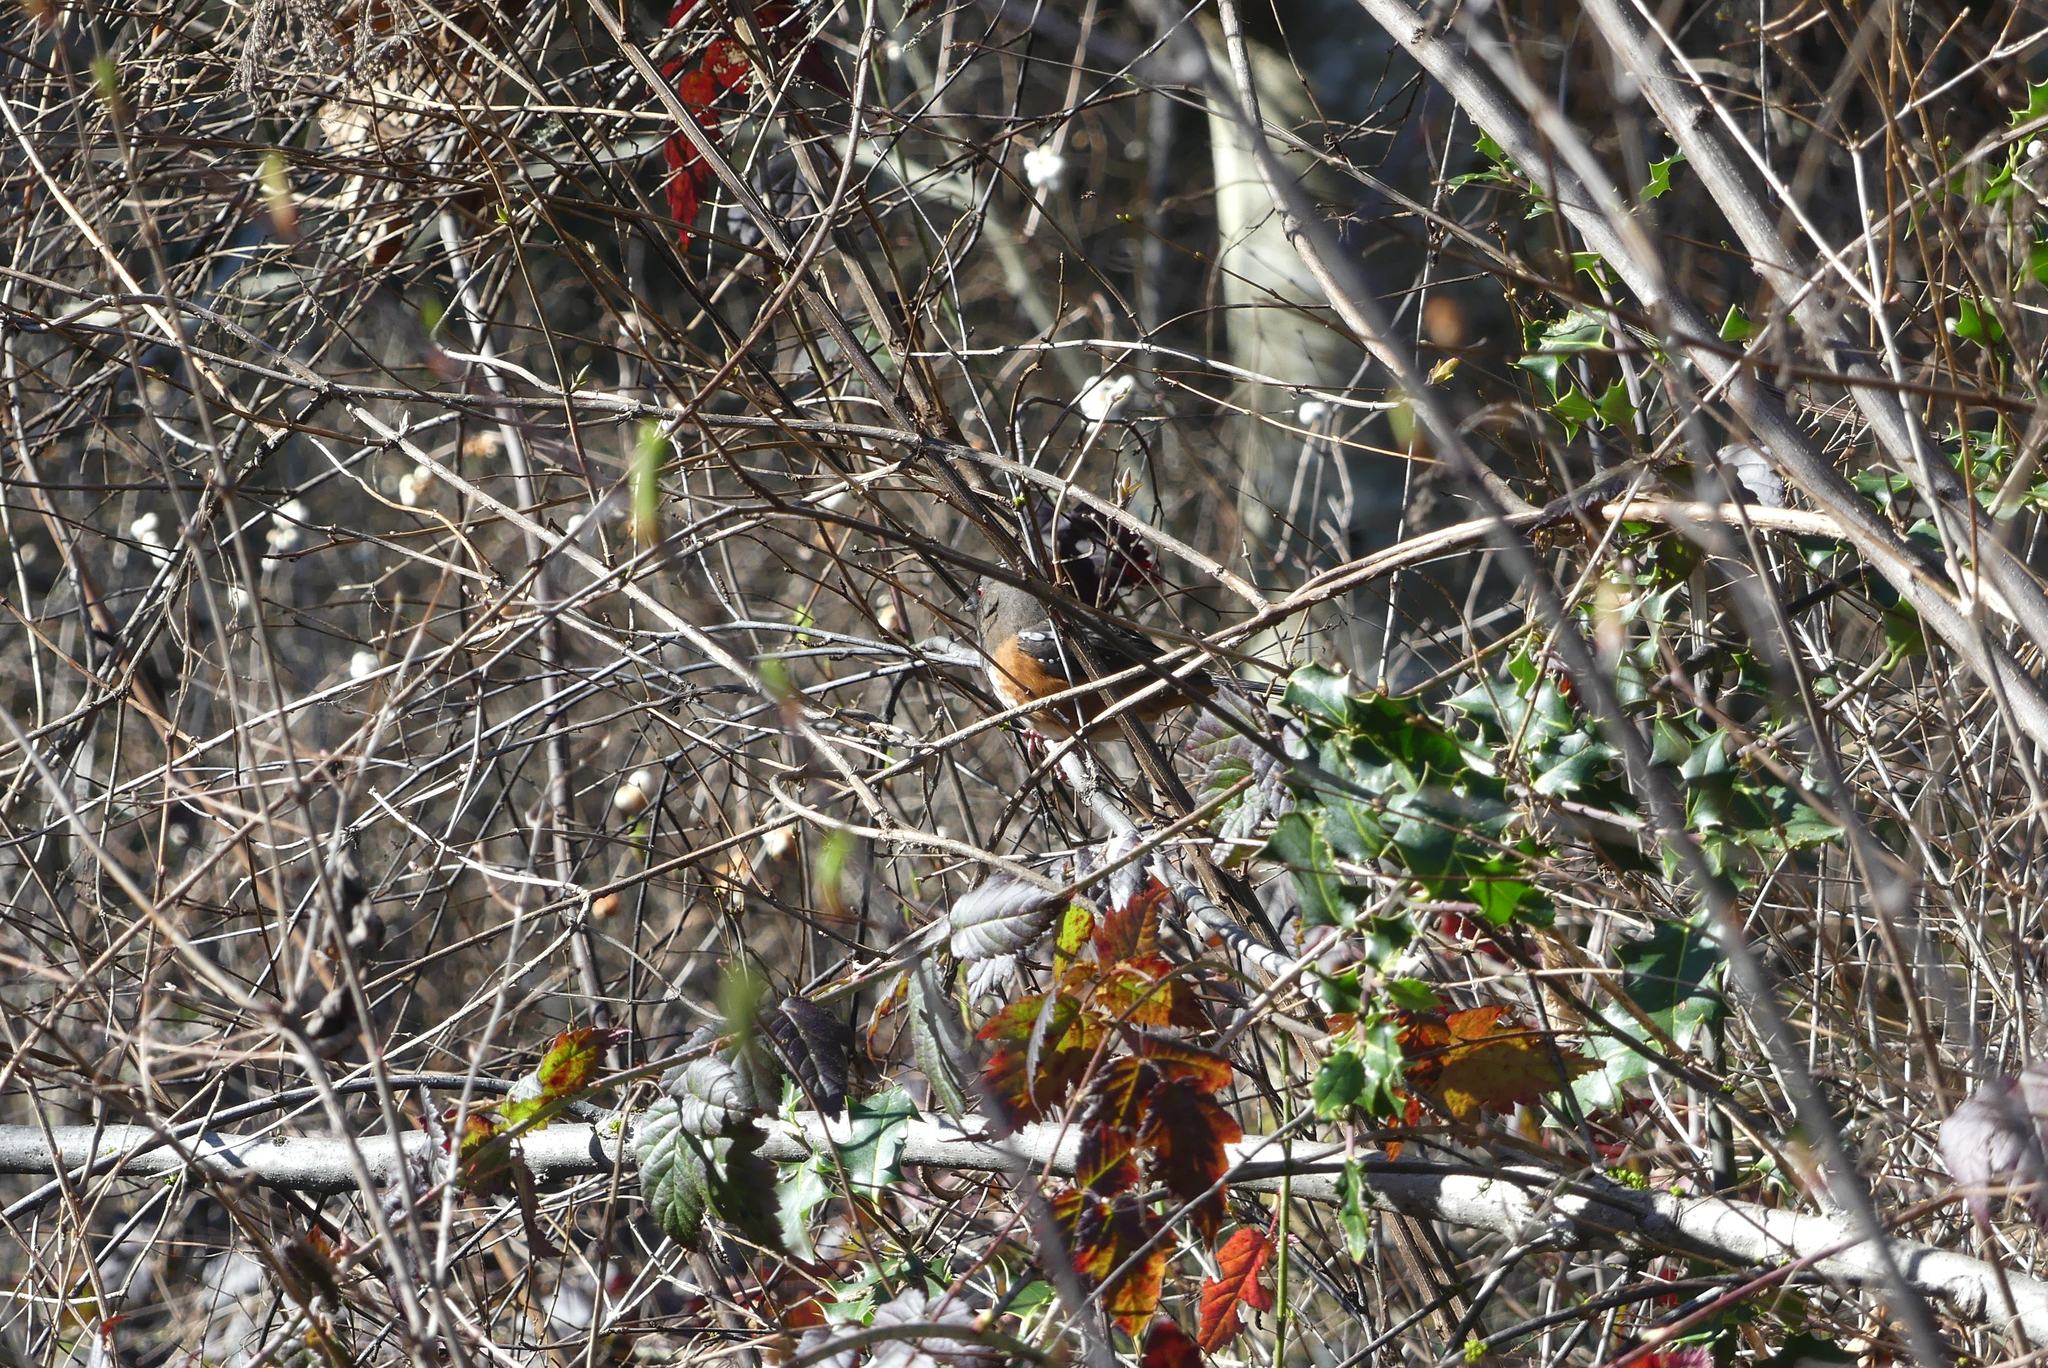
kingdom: Animalia
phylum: Chordata
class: Aves
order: Passeriformes
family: Passerellidae
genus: Pipilo
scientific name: Pipilo maculatus
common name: Spotted towhee
